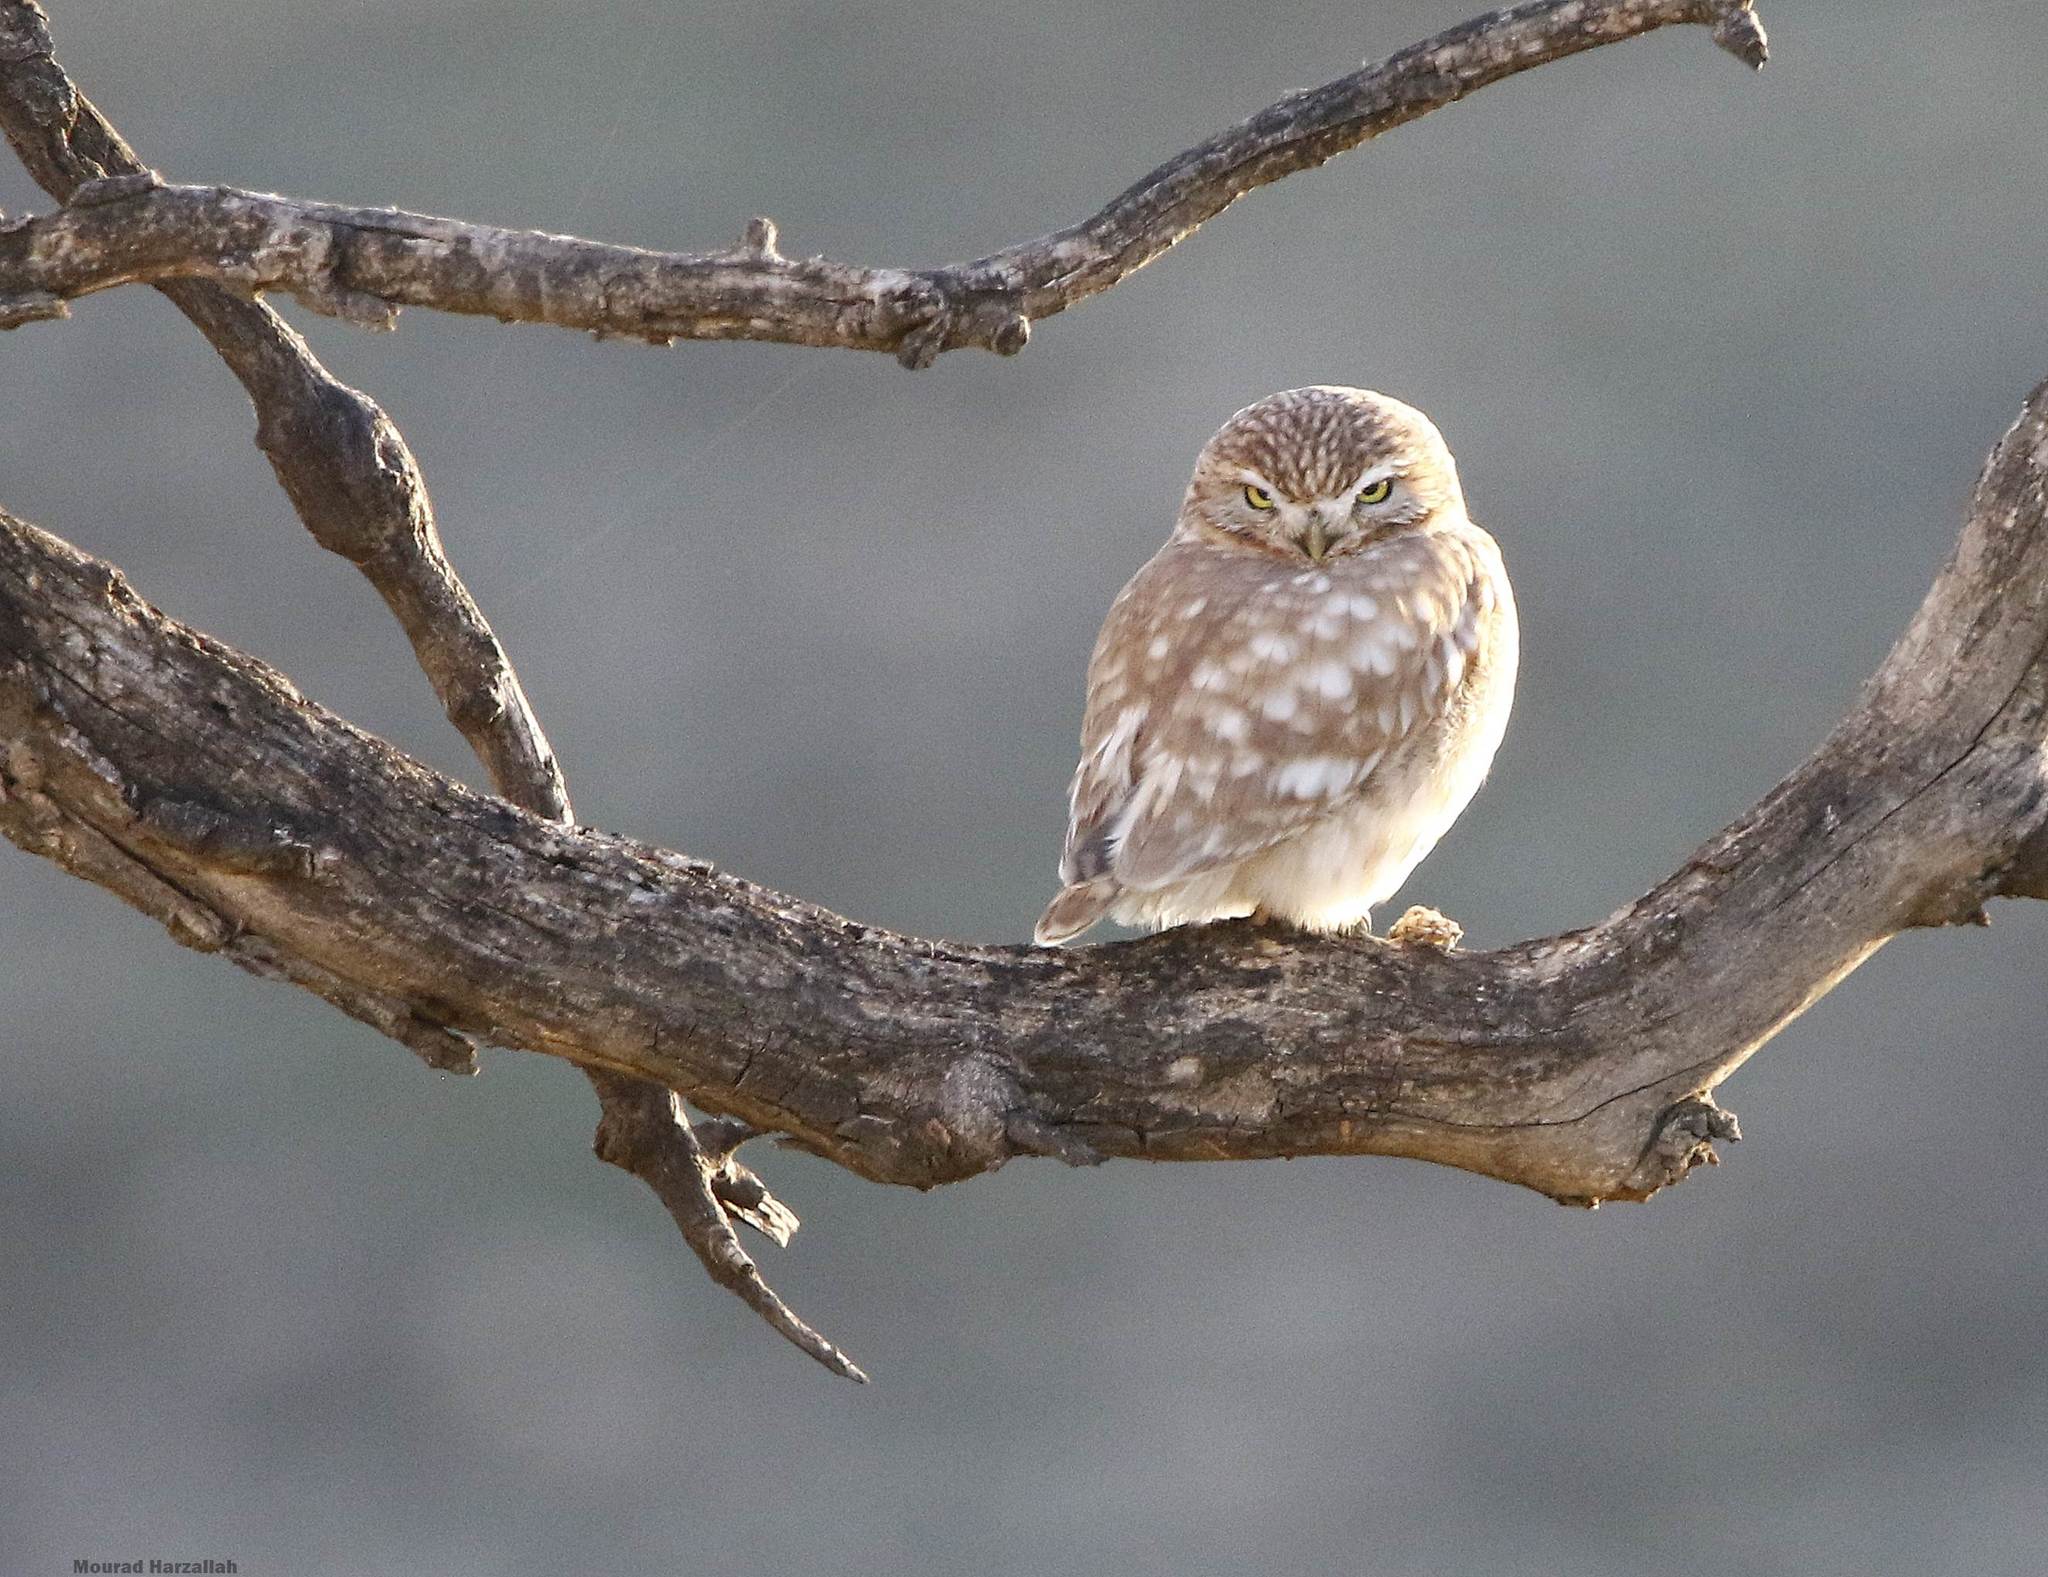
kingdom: Animalia
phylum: Chordata
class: Aves
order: Strigiformes
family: Strigidae
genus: Athene
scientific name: Athene noctua
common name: Little owl
